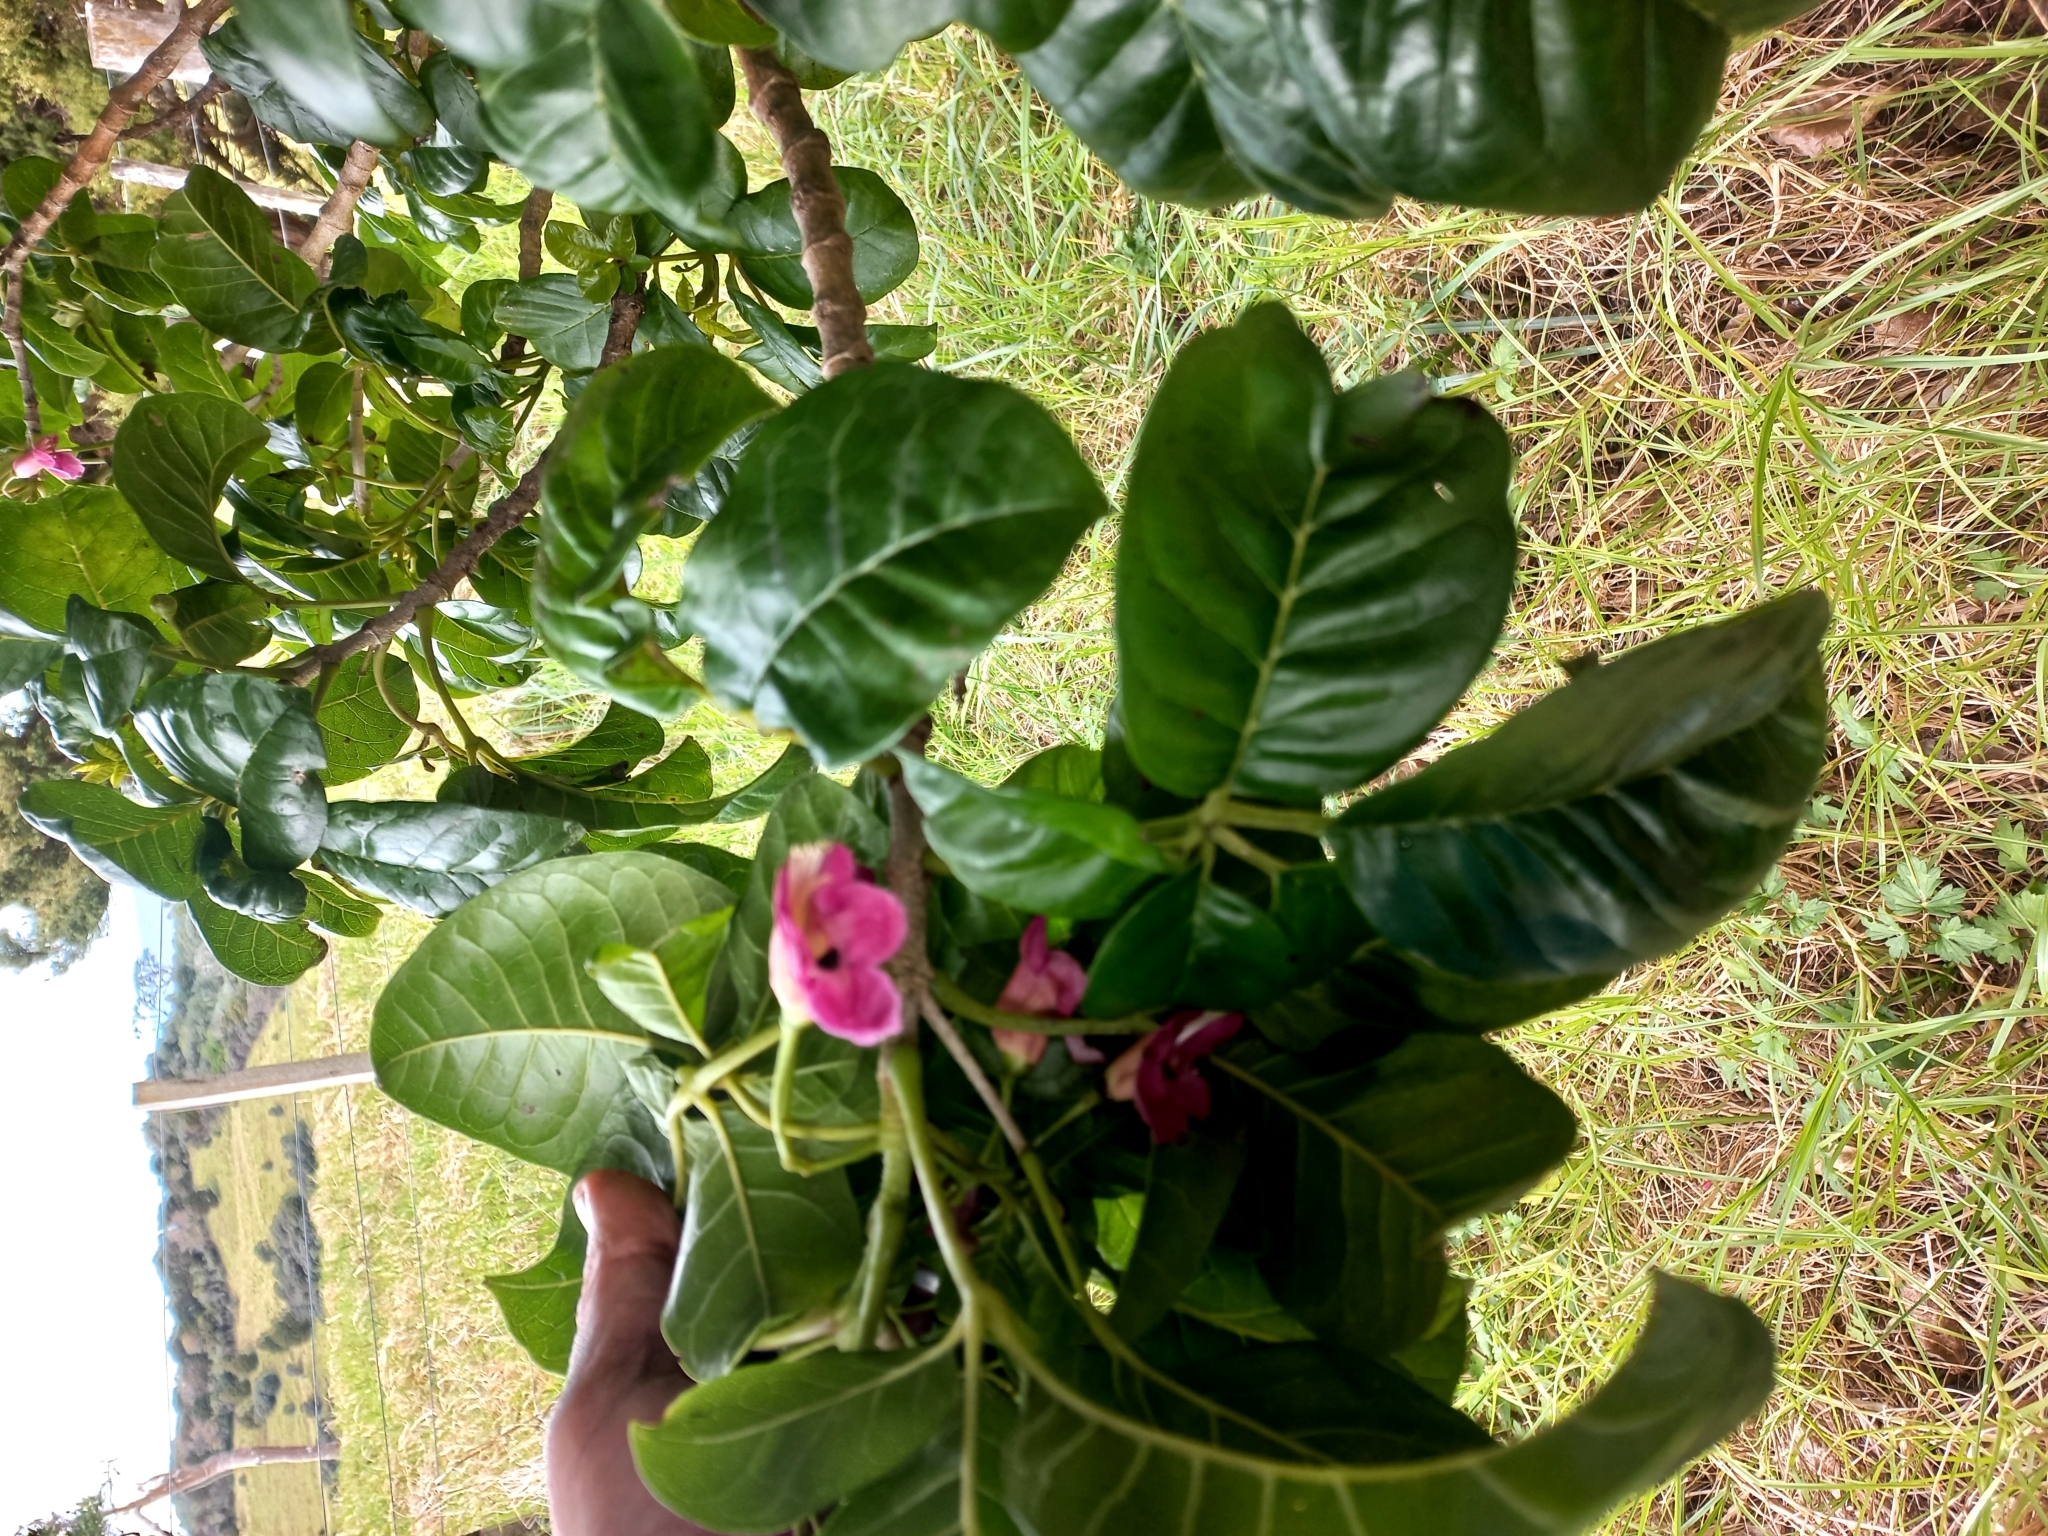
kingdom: Plantae
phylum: Tracheophyta
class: Magnoliopsida
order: Lamiales
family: Lamiaceae
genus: Vitex
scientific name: Vitex lucens
